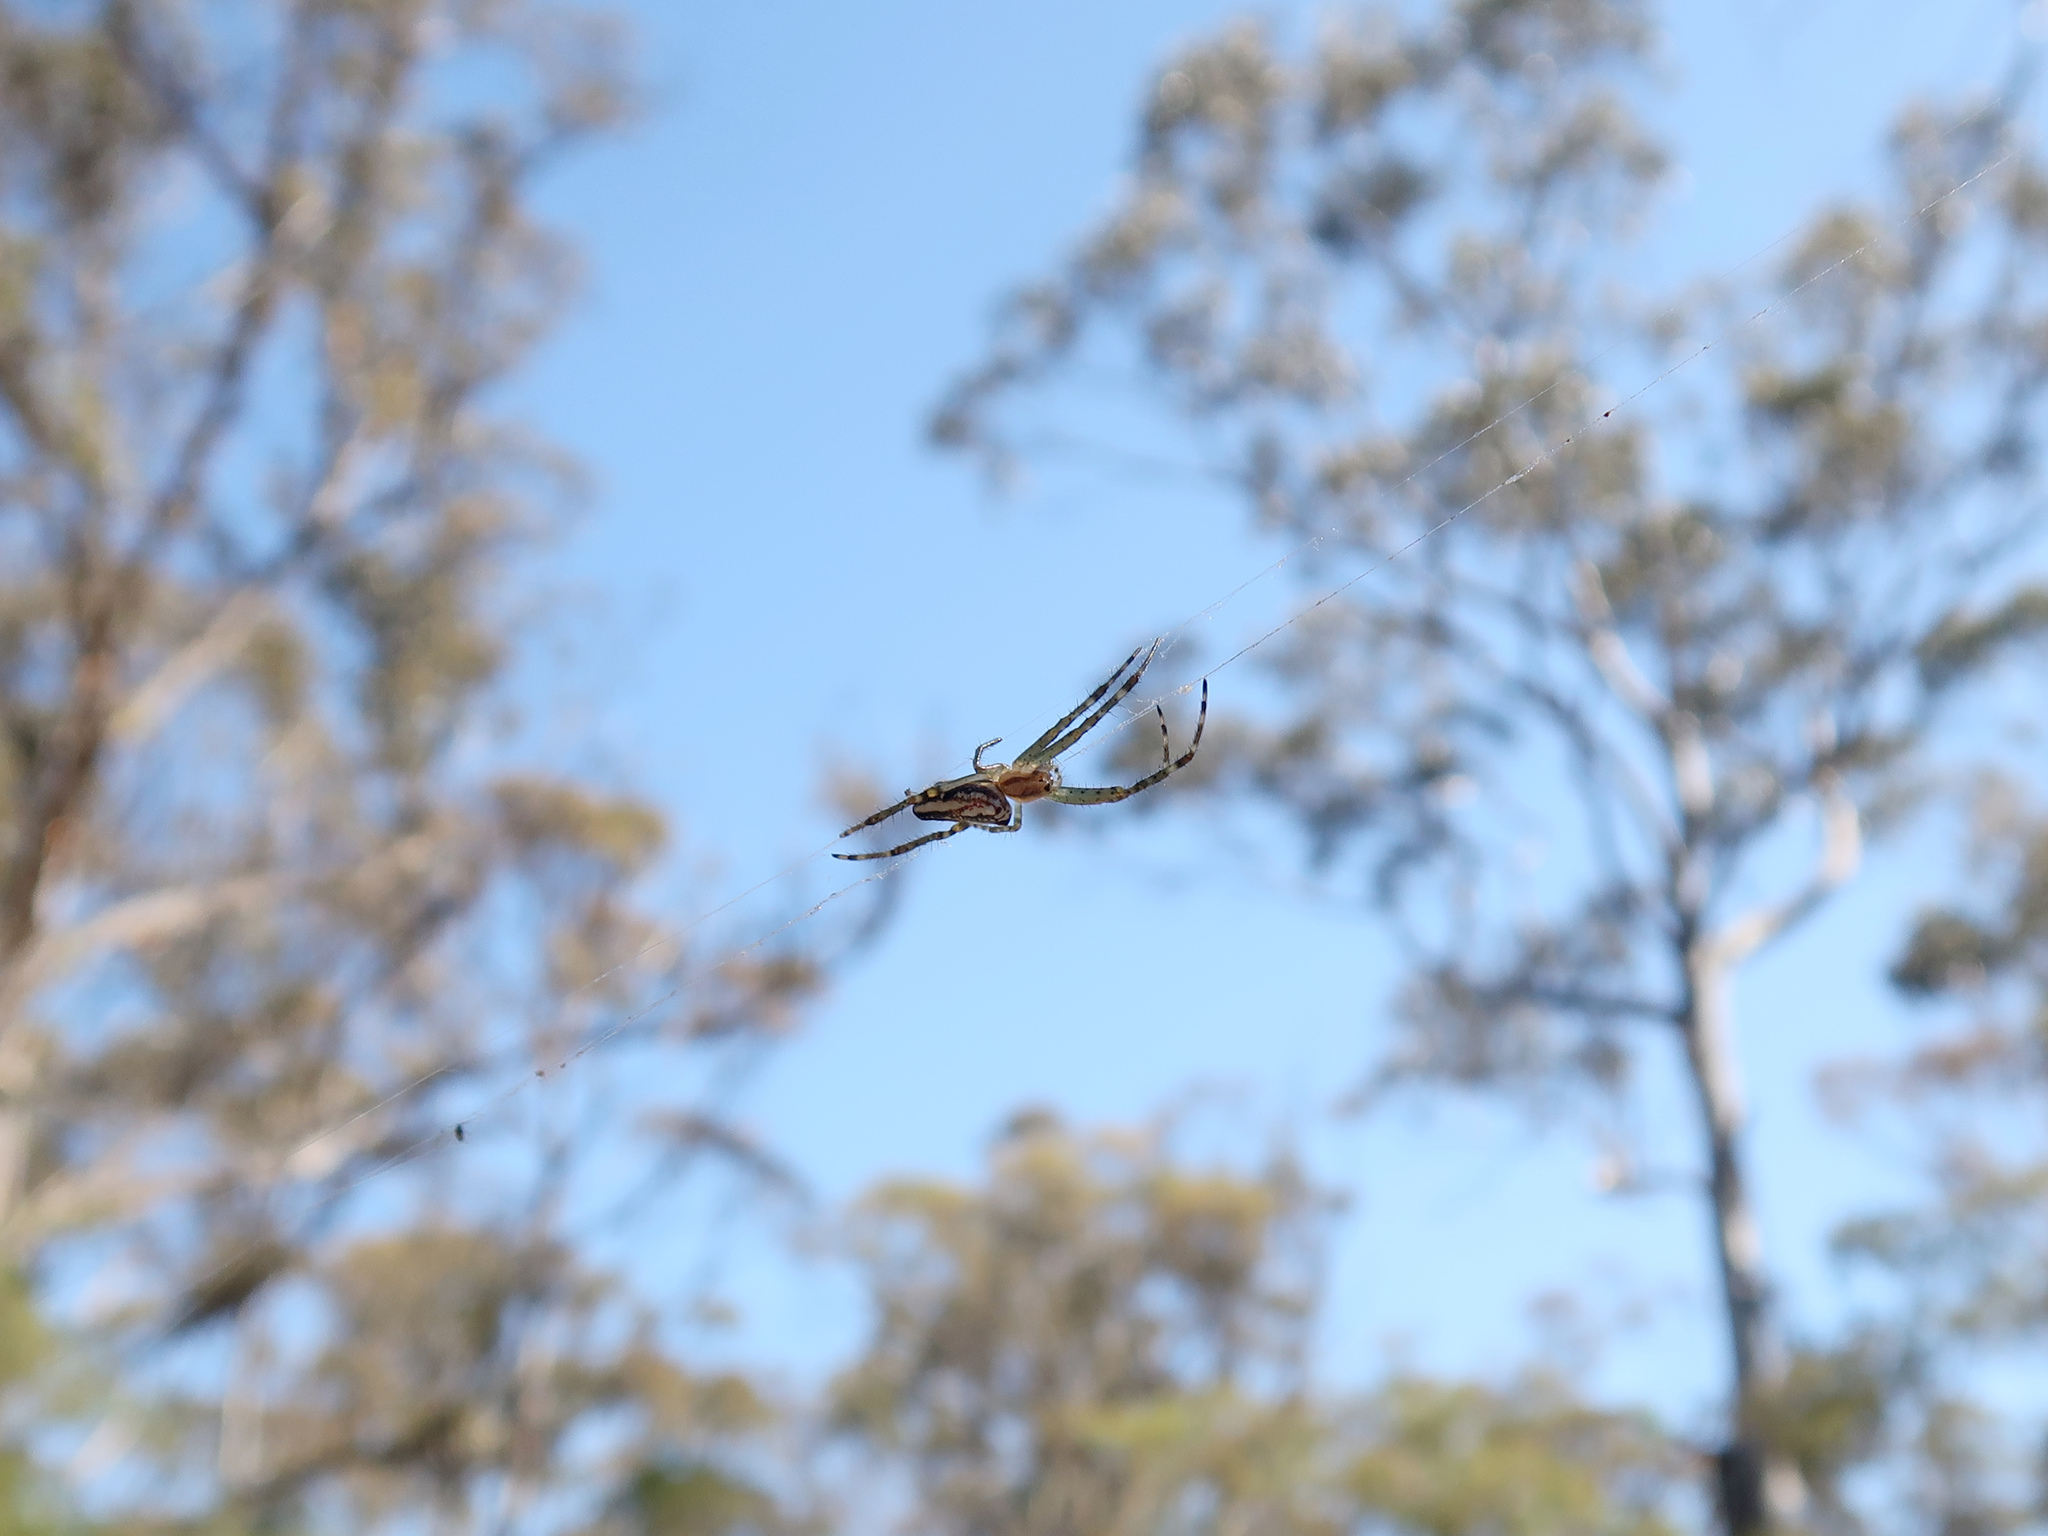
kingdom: Animalia
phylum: Arthropoda
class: Arachnida
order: Araneae
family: Araneidae
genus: Plebs
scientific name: Plebs bradleyi
